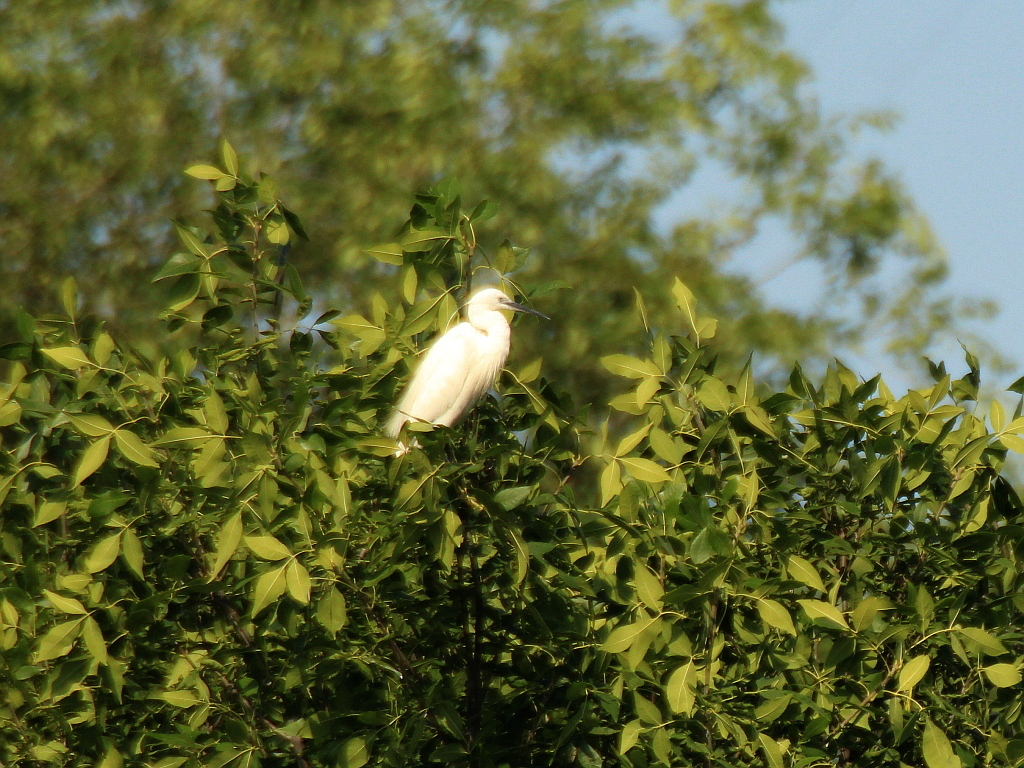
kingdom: Animalia
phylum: Chordata
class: Aves
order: Pelecaniformes
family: Ardeidae
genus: Egretta
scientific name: Egretta garzetta
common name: Little egret
